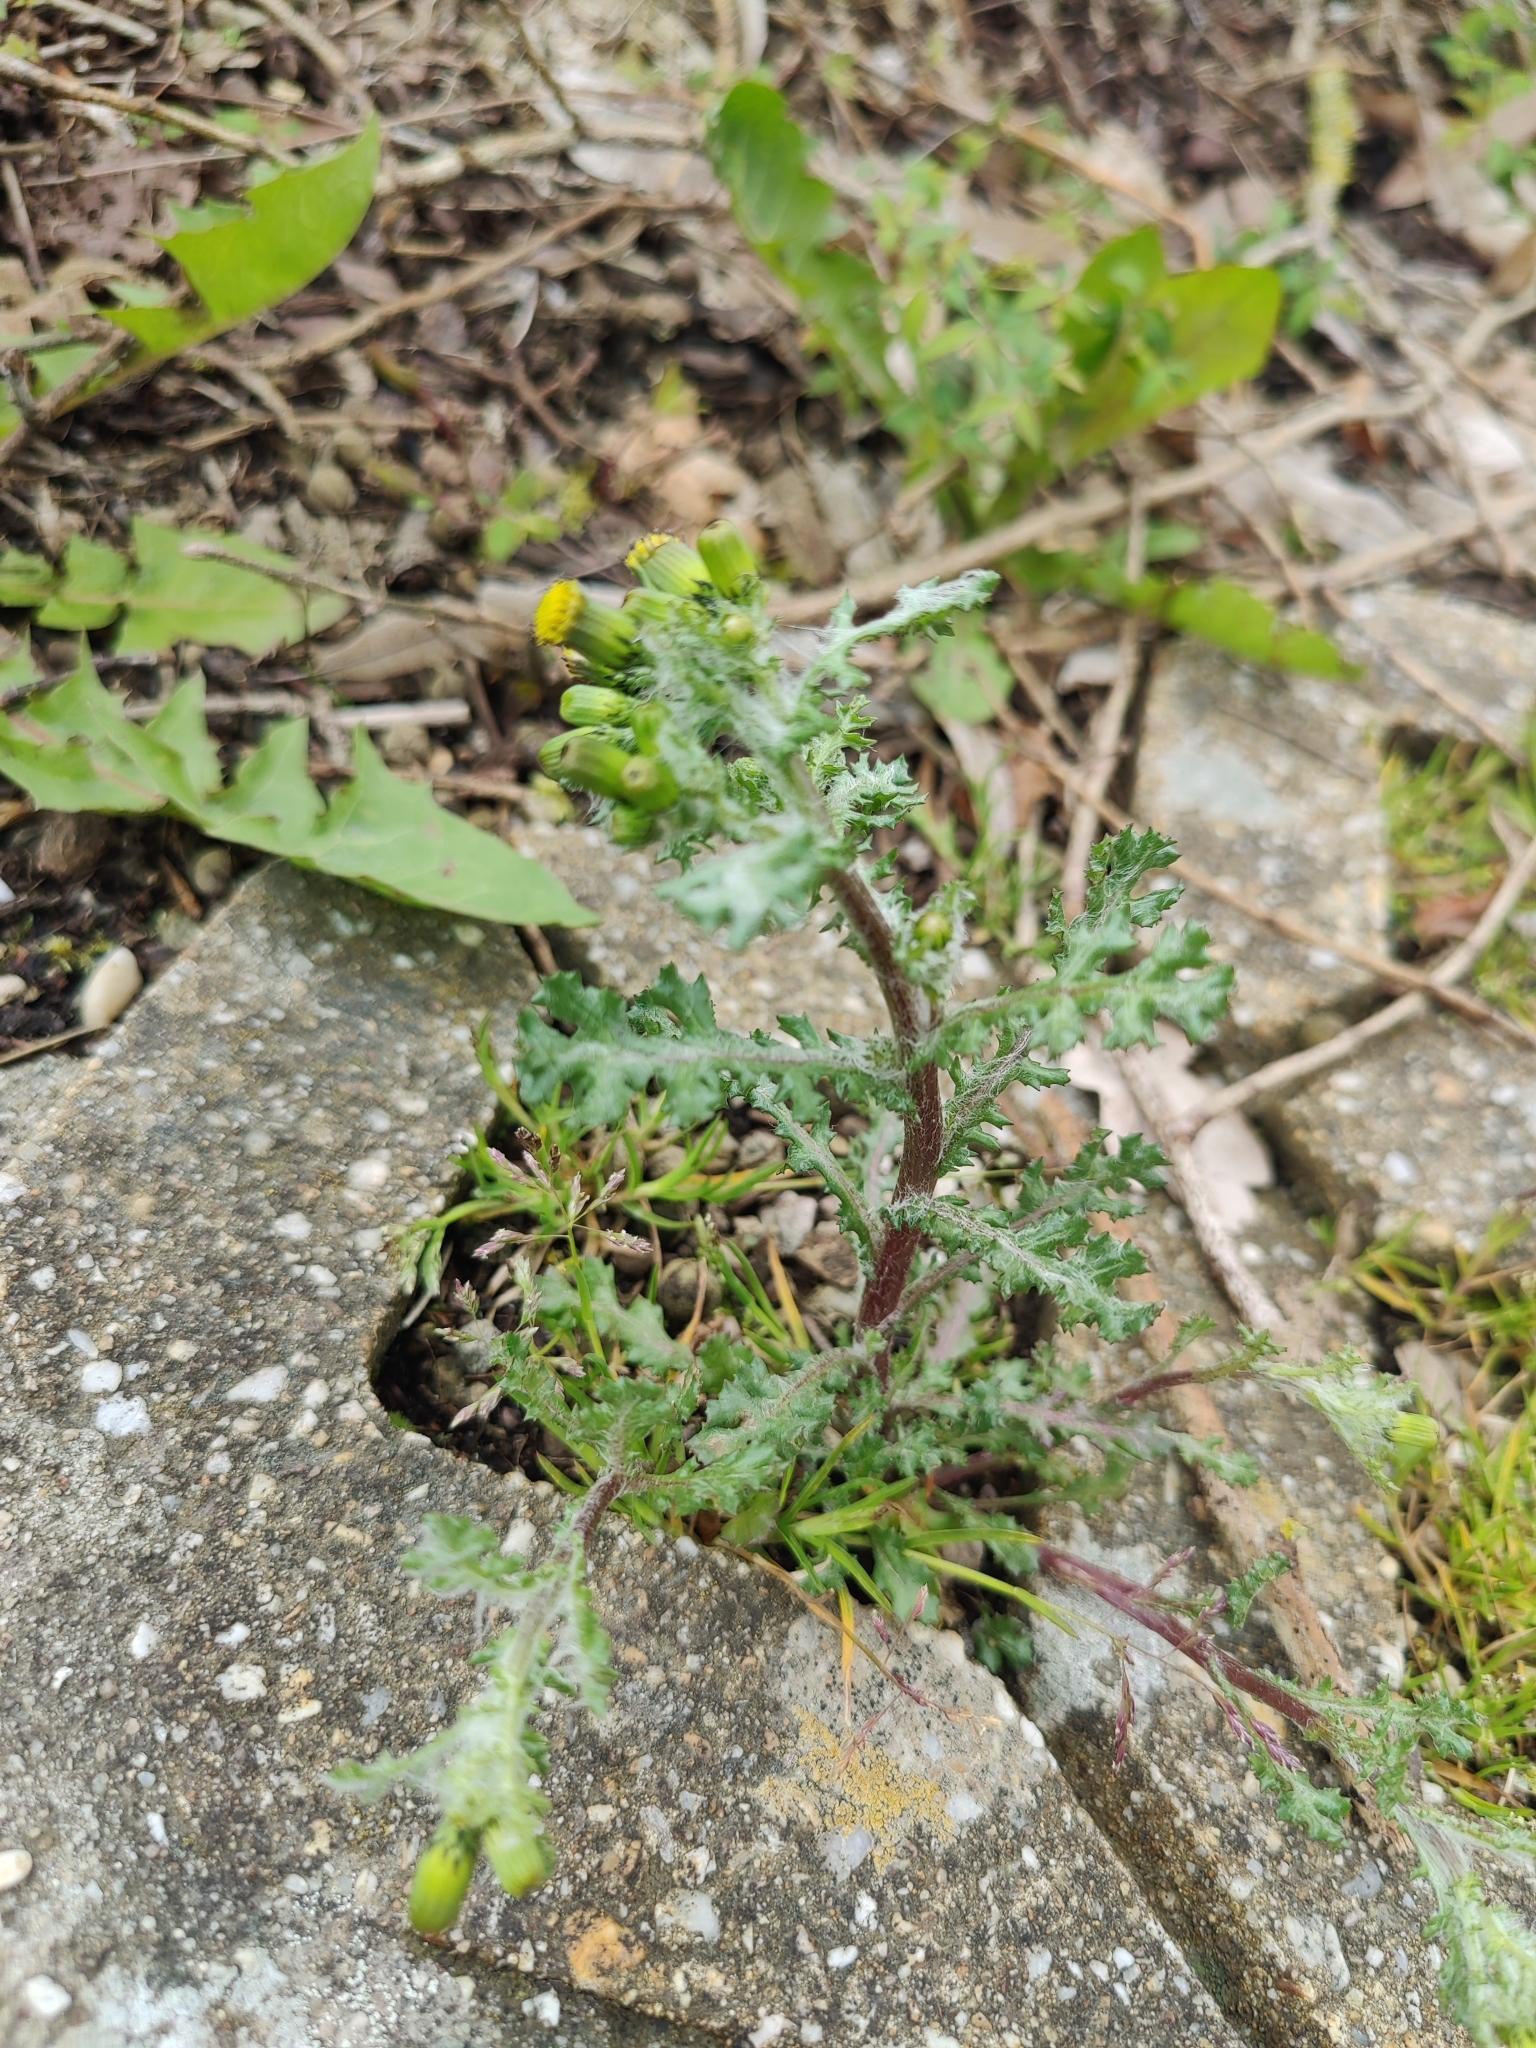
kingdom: Plantae
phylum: Tracheophyta
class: Magnoliopsida
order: Asterales
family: Asteraceae
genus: Senecio
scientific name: Senecio vulgaris
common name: Old-man-in-the-spring
